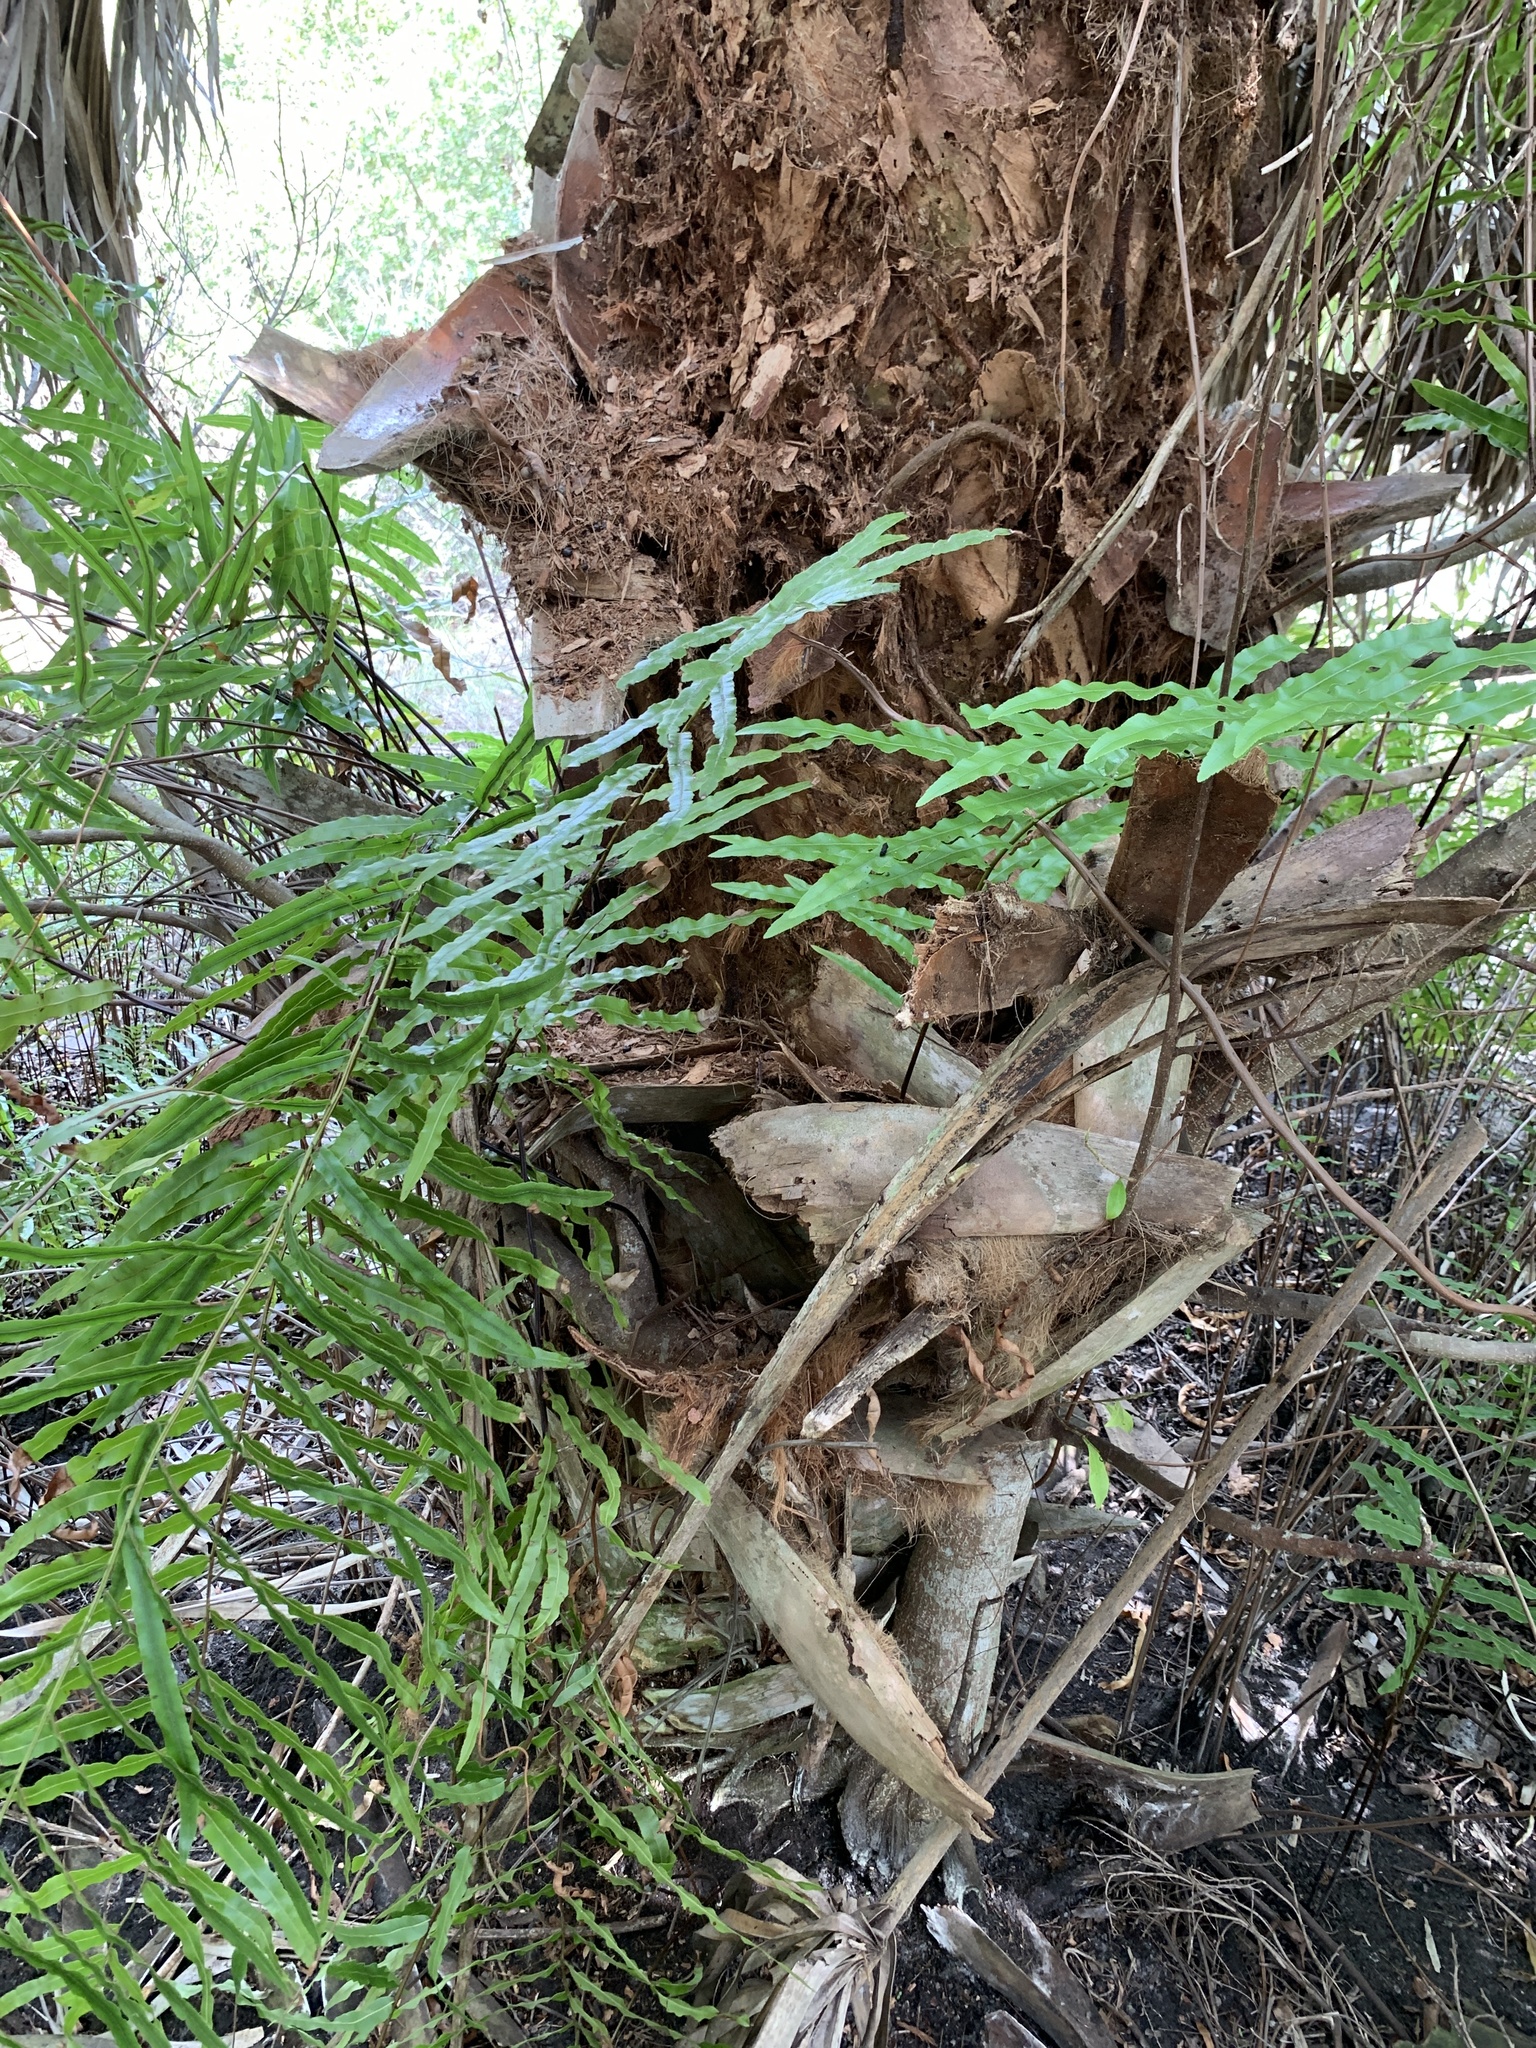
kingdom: Plantae
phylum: Tracheophyta
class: Polypodiopsida
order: Polypodiales
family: Blechnaceae
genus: Telmatoblechnum
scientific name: Telmatoblechnum serrulatum
